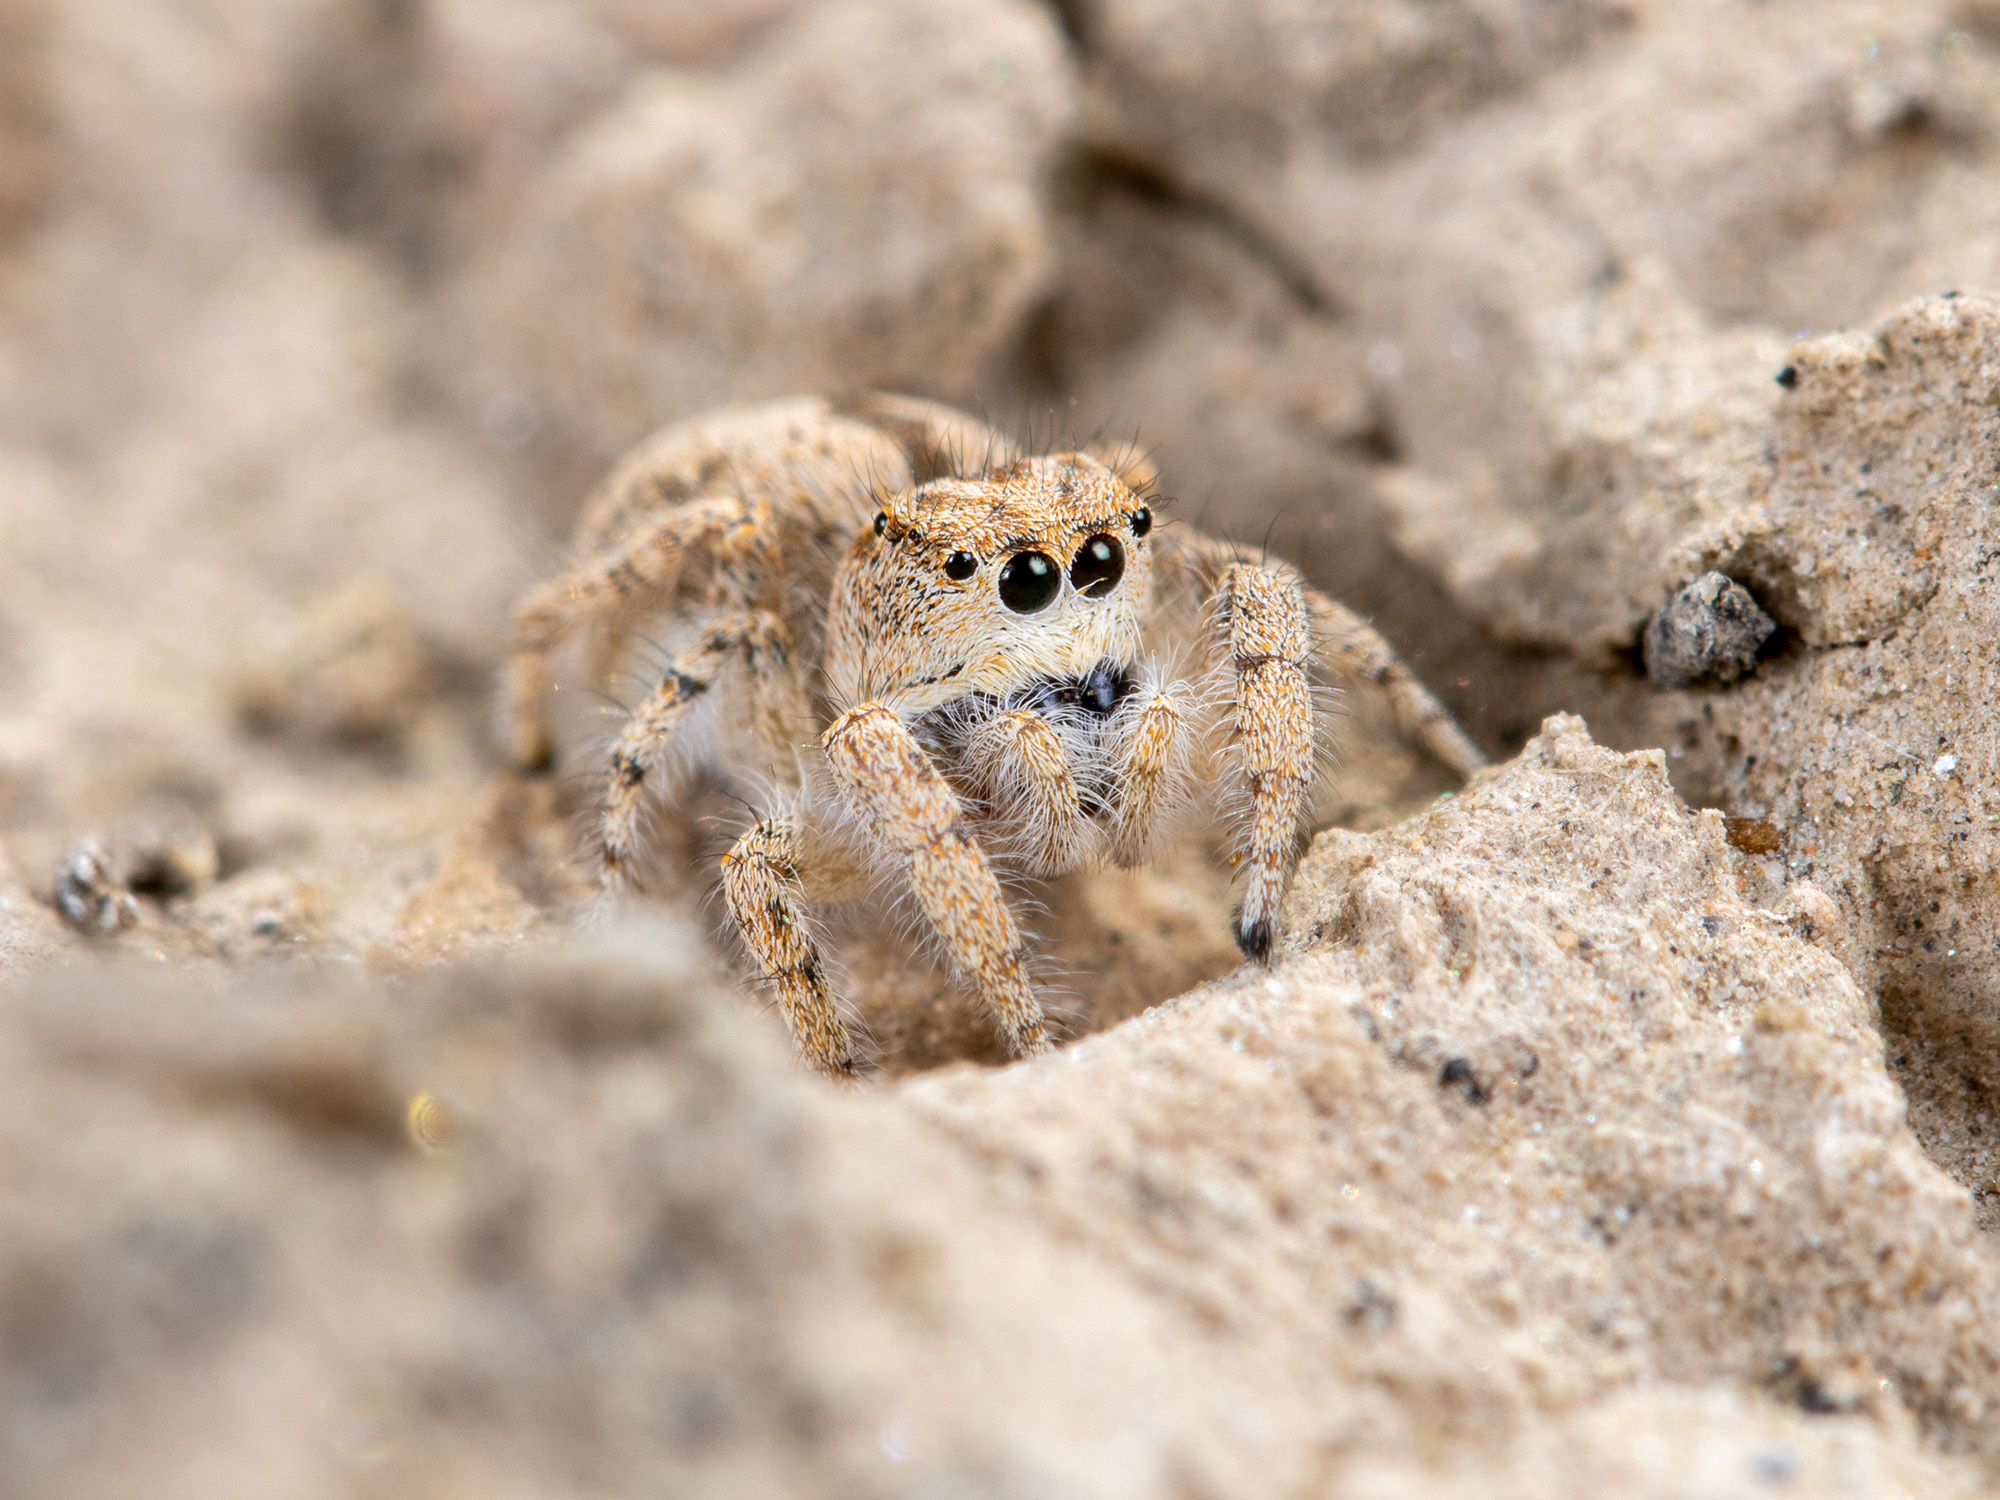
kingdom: Animalia
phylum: Arthropoda
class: Arachnida
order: Araneae
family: Salticidae
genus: Pseudomogrus
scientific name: Pseudomogrus guseinovi
